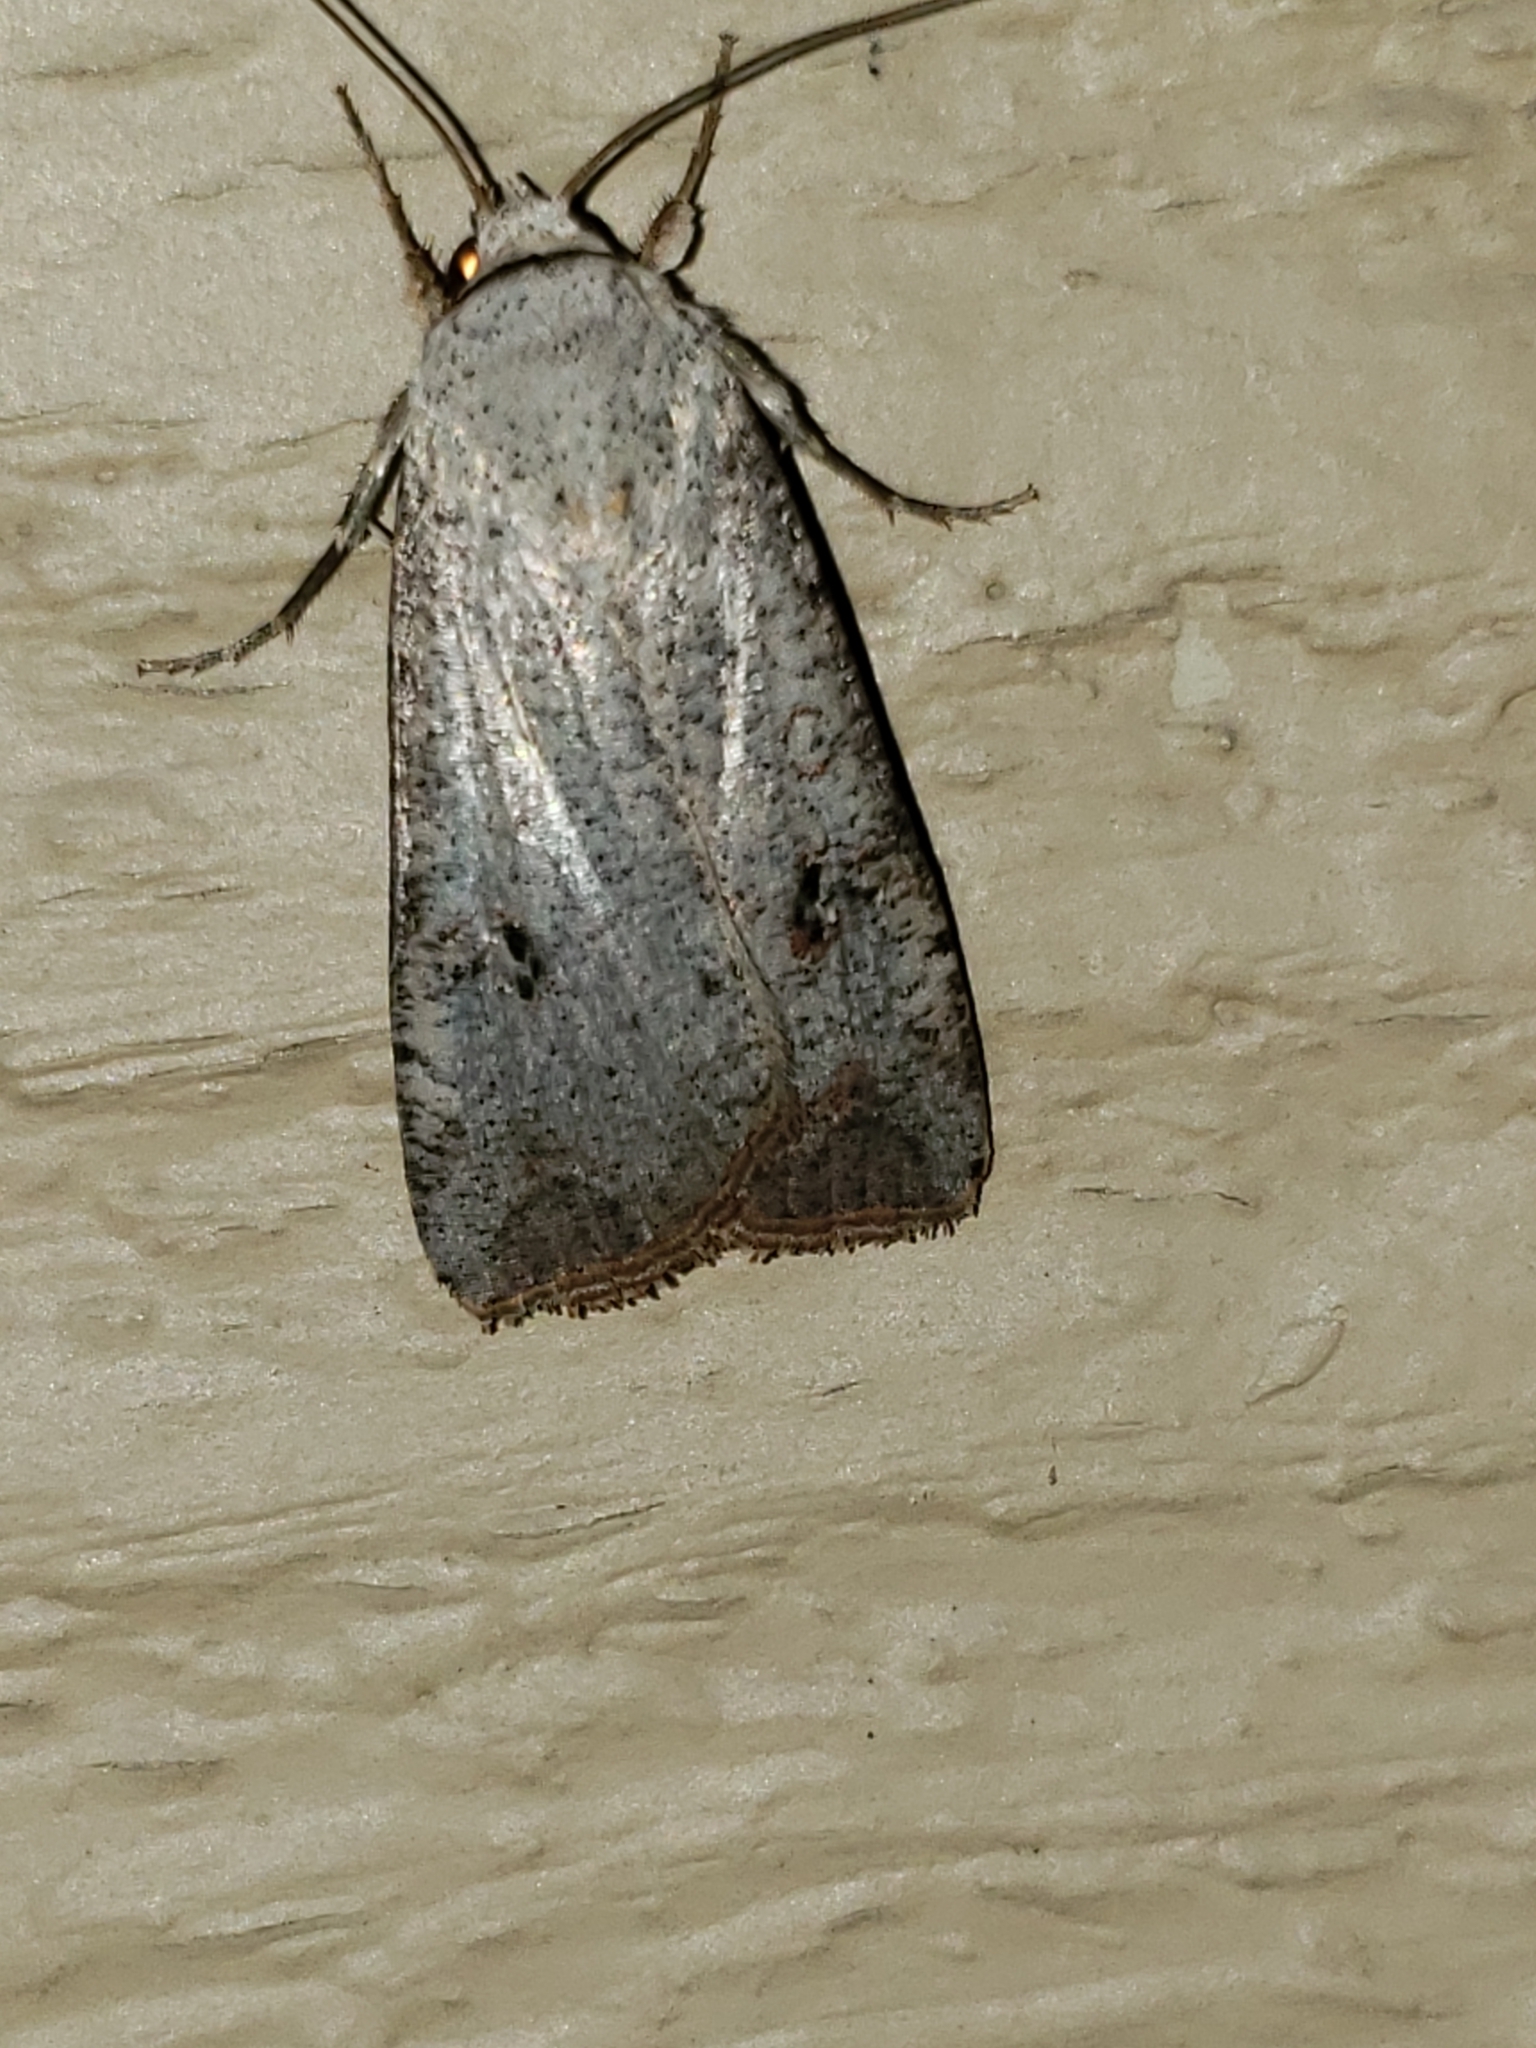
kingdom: Animalia
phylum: Arthropoda
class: Insecta
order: Lepidoptera
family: Noctuidae
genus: Anicla
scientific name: Anicla infecta
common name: Green cutworm
